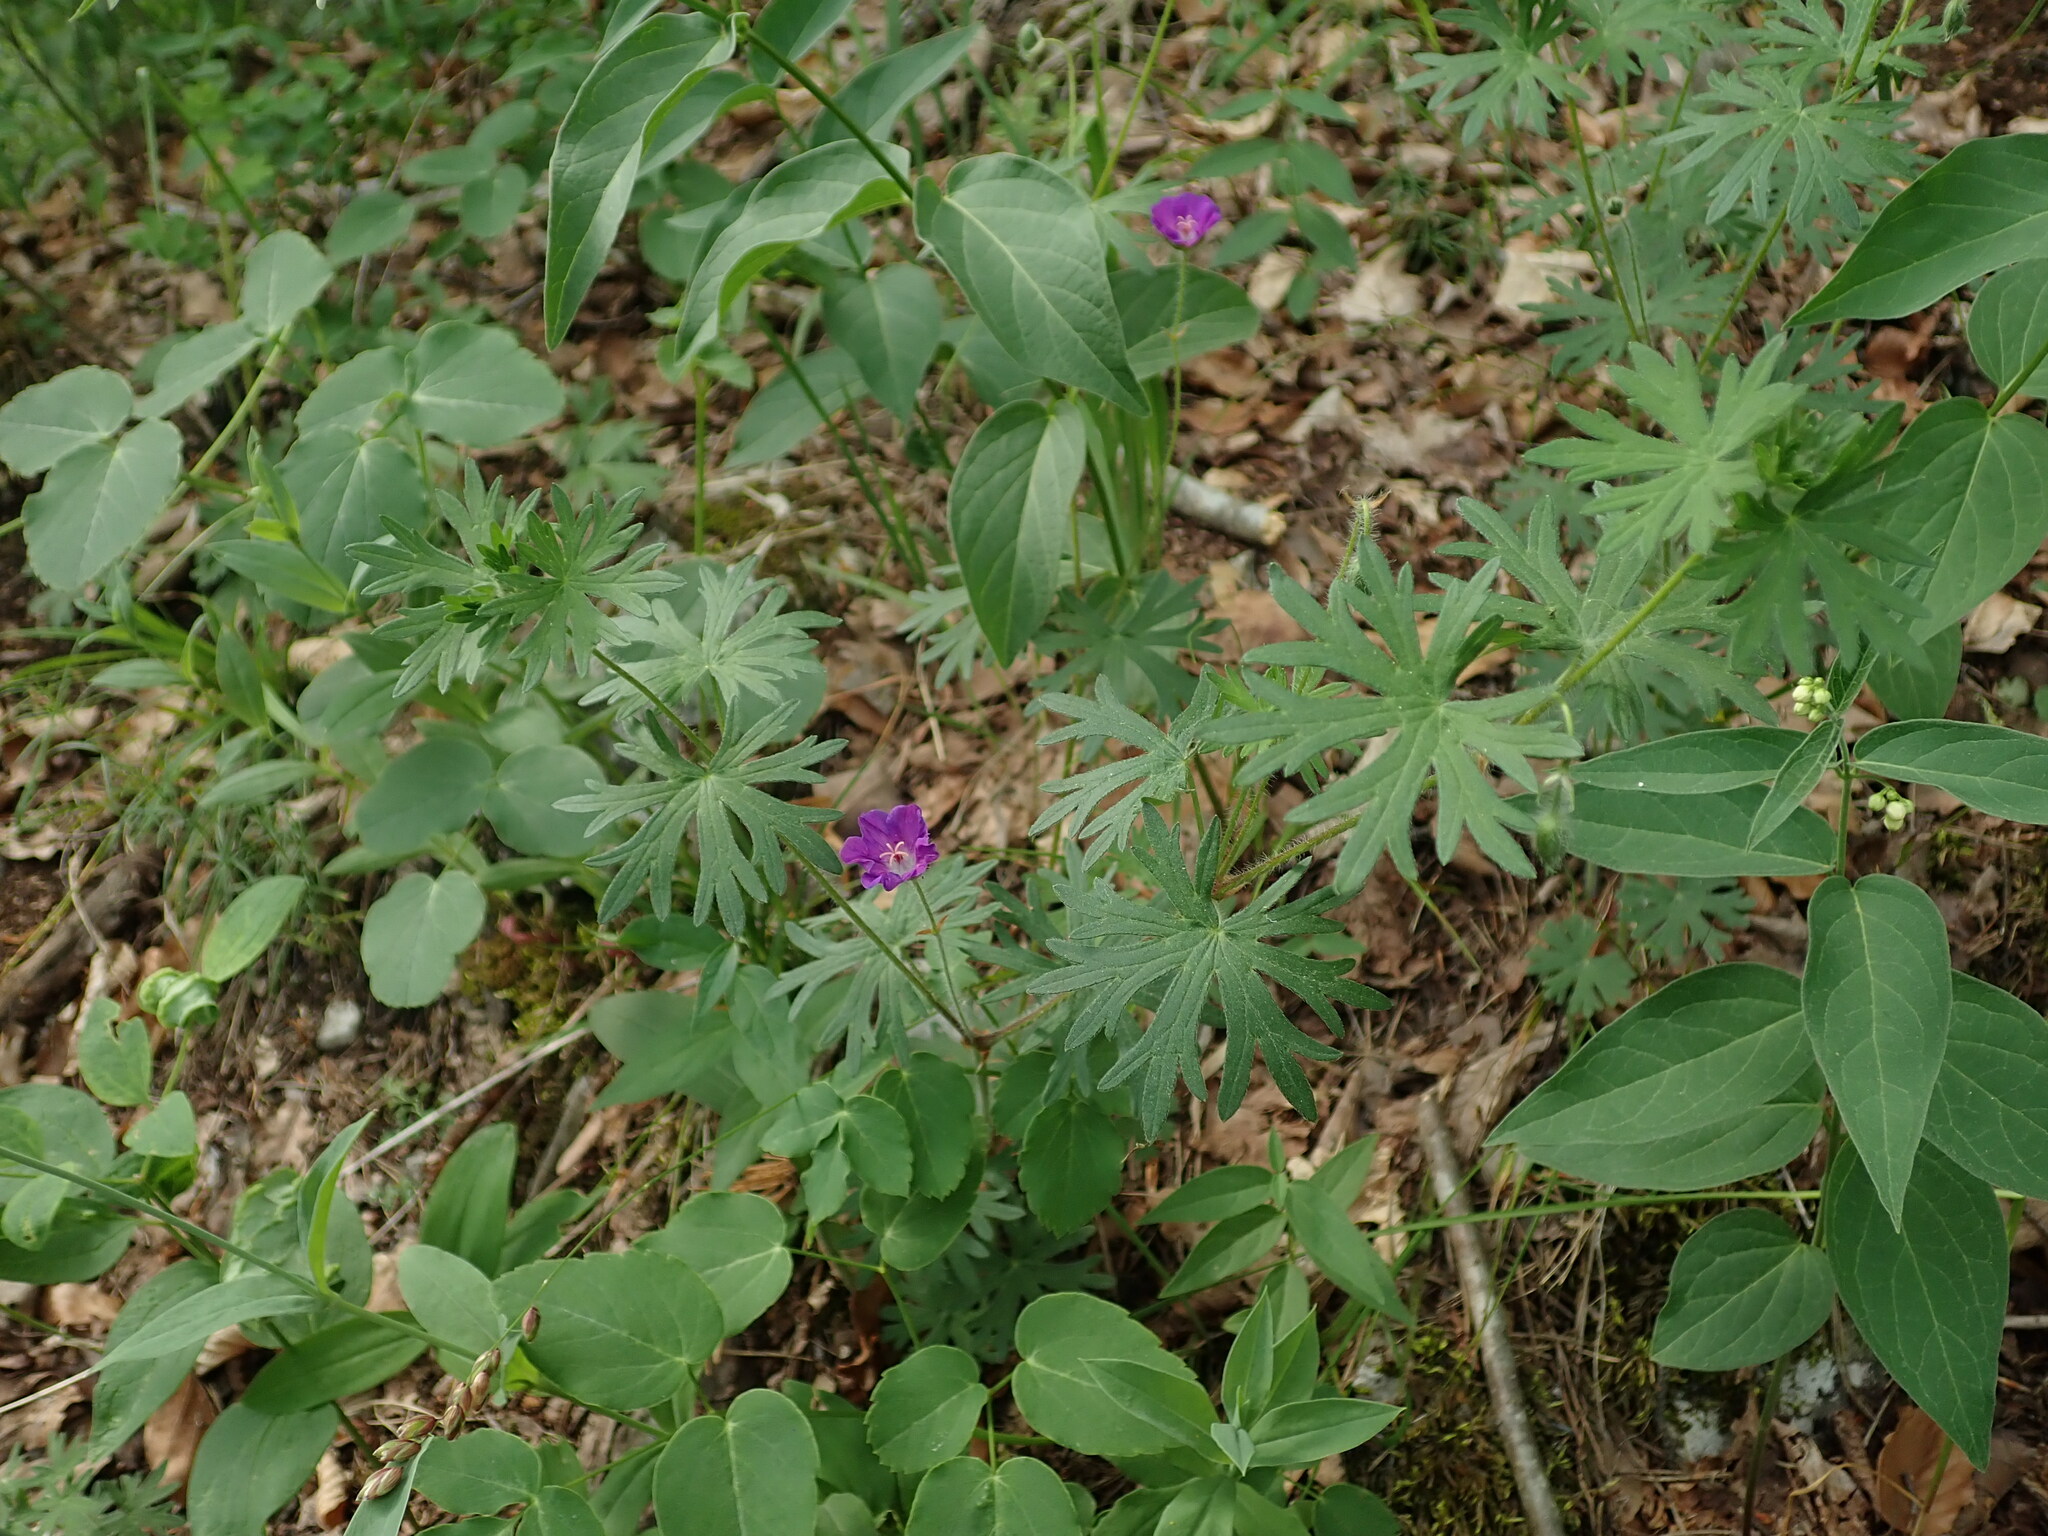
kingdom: Plantae
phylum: Tracheophyta
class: Magnoliopsida
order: Geraniales
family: Geraniaceae
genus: Geranium
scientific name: Geranium sanguineum
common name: Bloody crane's-bill
